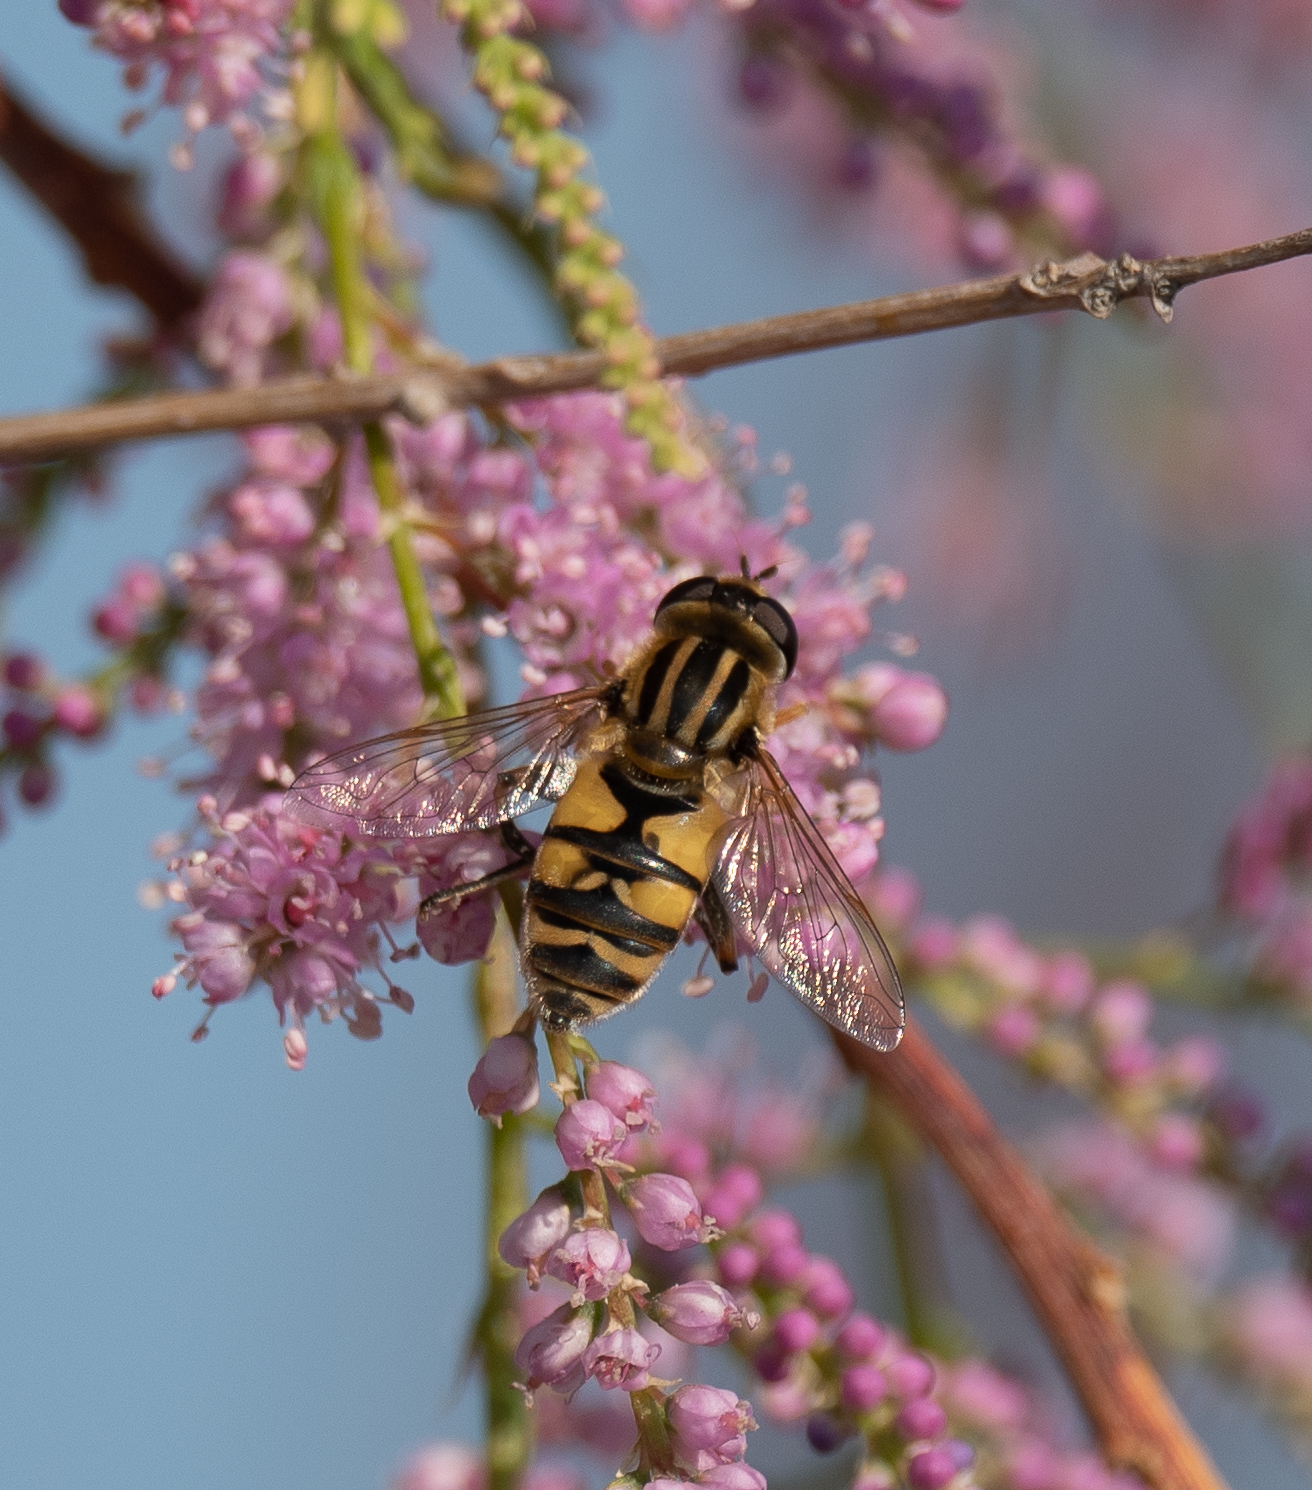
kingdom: Animalia
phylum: Arthropoda
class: Insecta
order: Diptera
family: Syrphidae
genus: Helophilus
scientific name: Helophilus latifrons
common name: Broad-headed marsh fly
